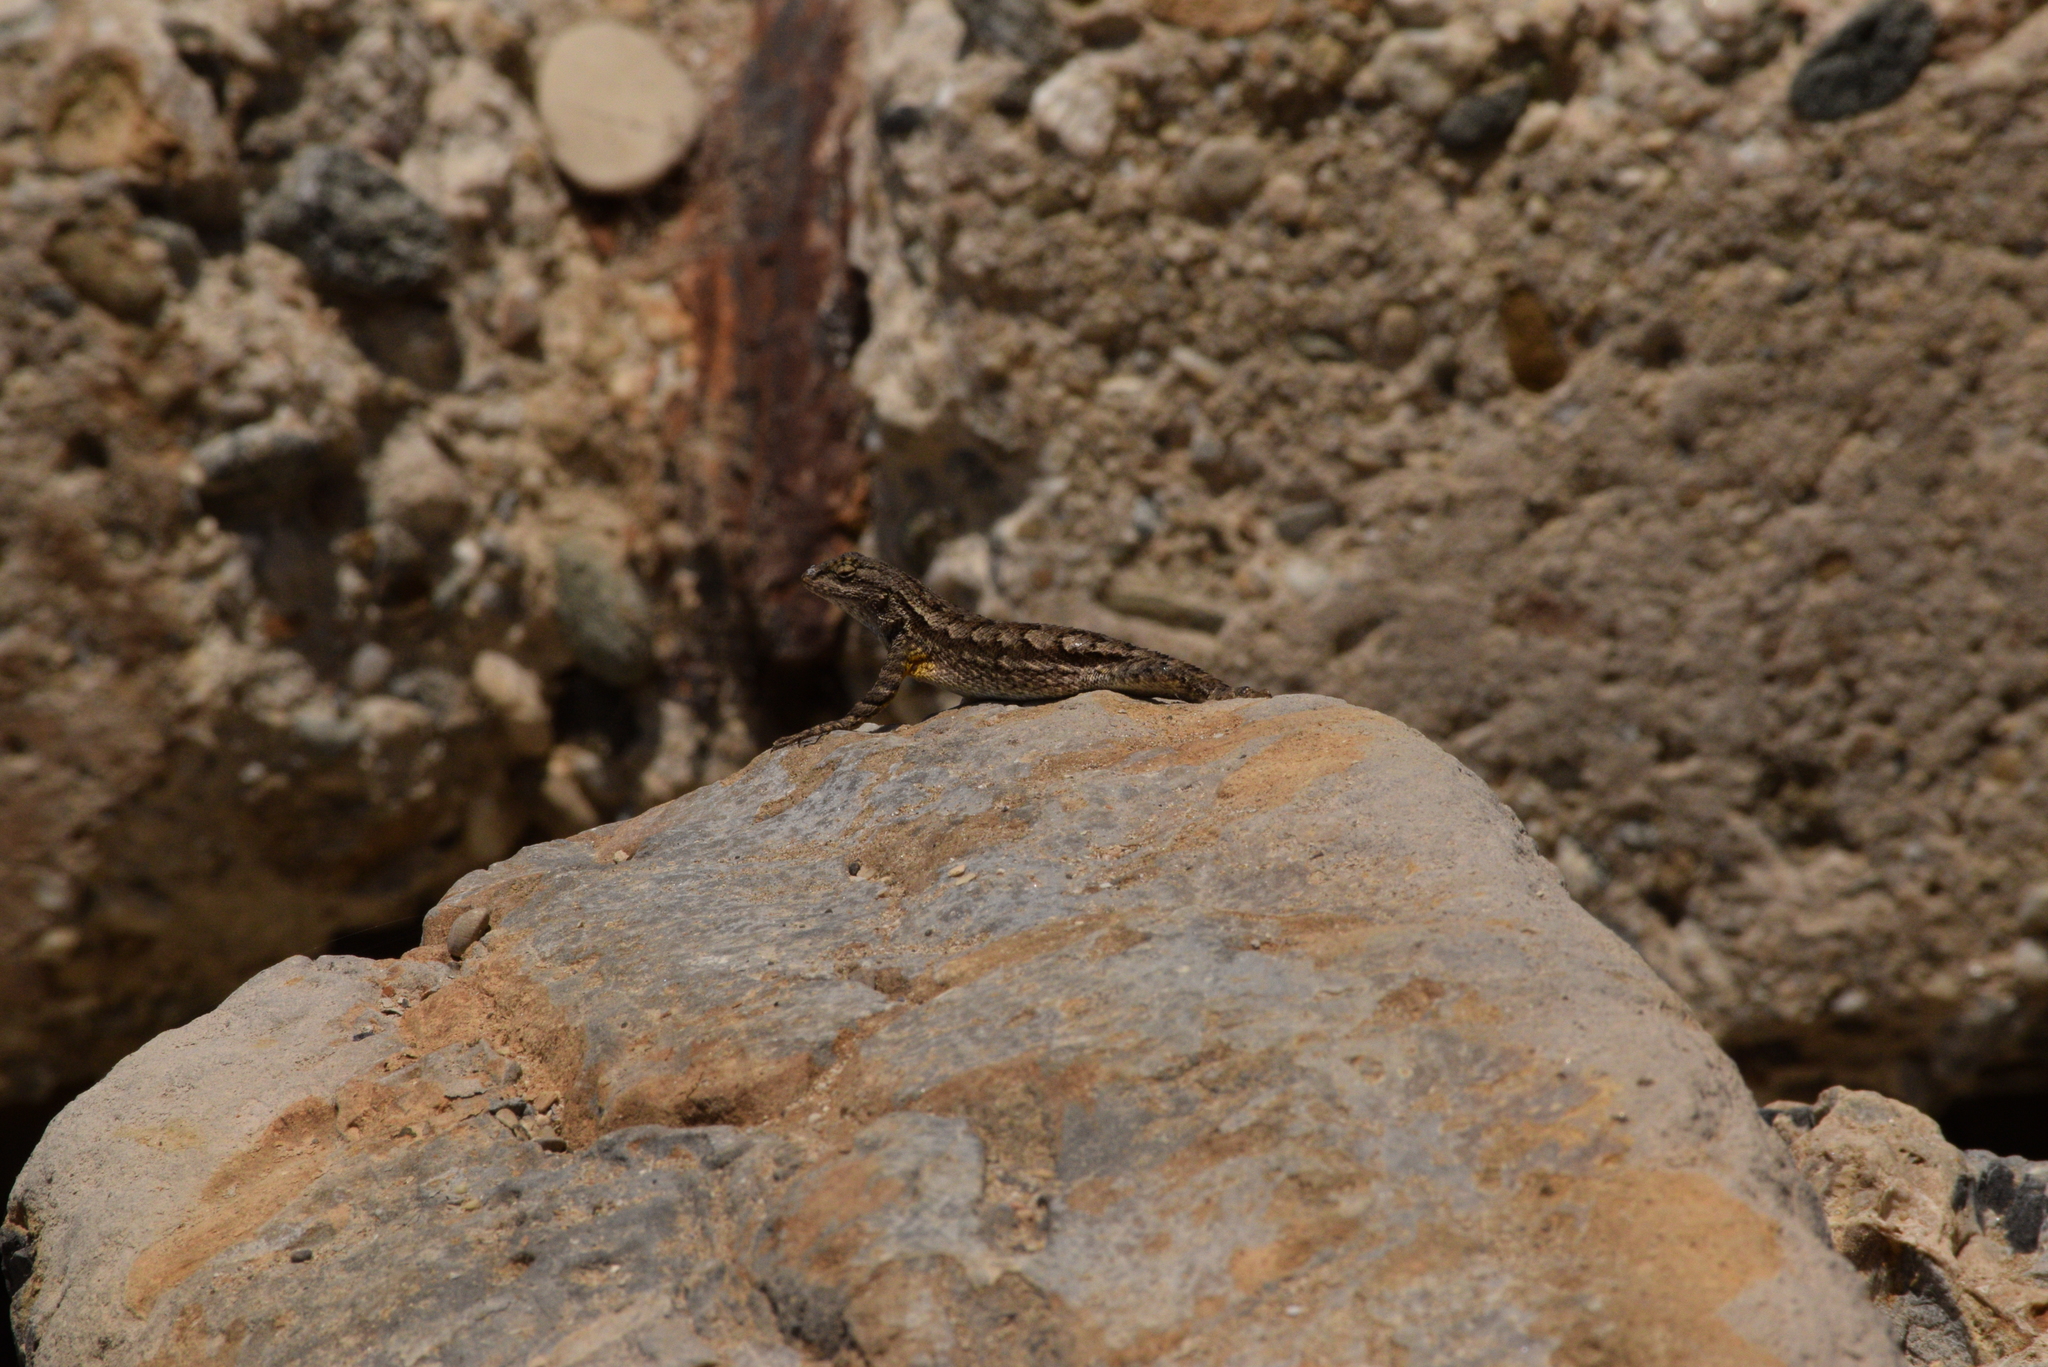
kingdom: Animalia
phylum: Chordata
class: Squamata
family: Phrynosomatidae
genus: Sceloporus
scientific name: Sceloporus occidentalis
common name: Western fence lizard
